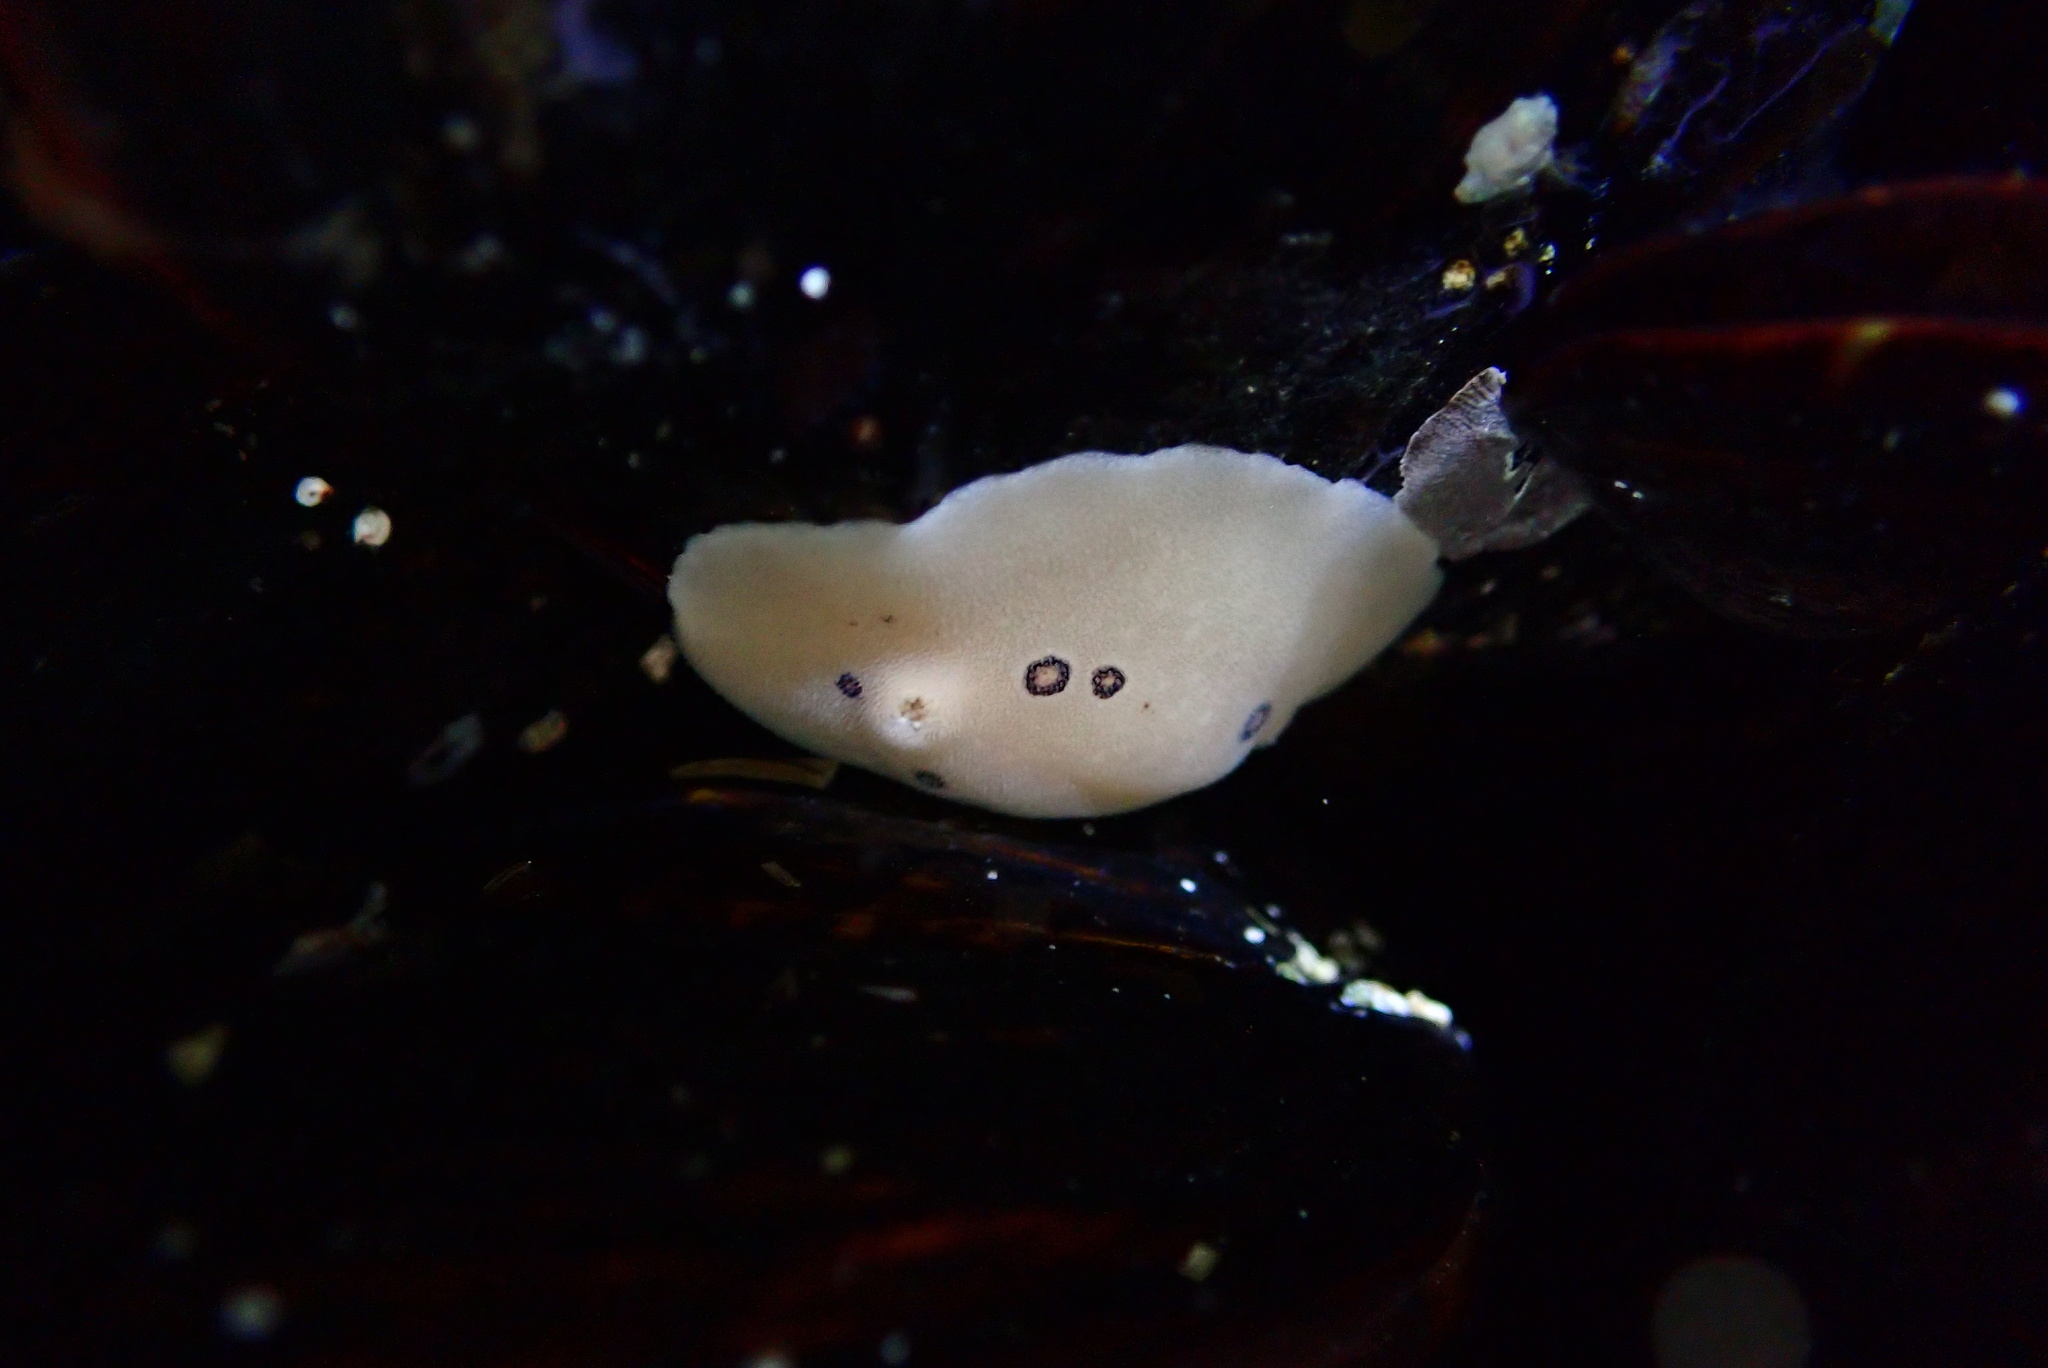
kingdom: Animalia
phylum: Mollusca
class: Gastropoda
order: Nudibranchia
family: Discodorididae
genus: Diaulula
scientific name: Diaulula sandiegensis
